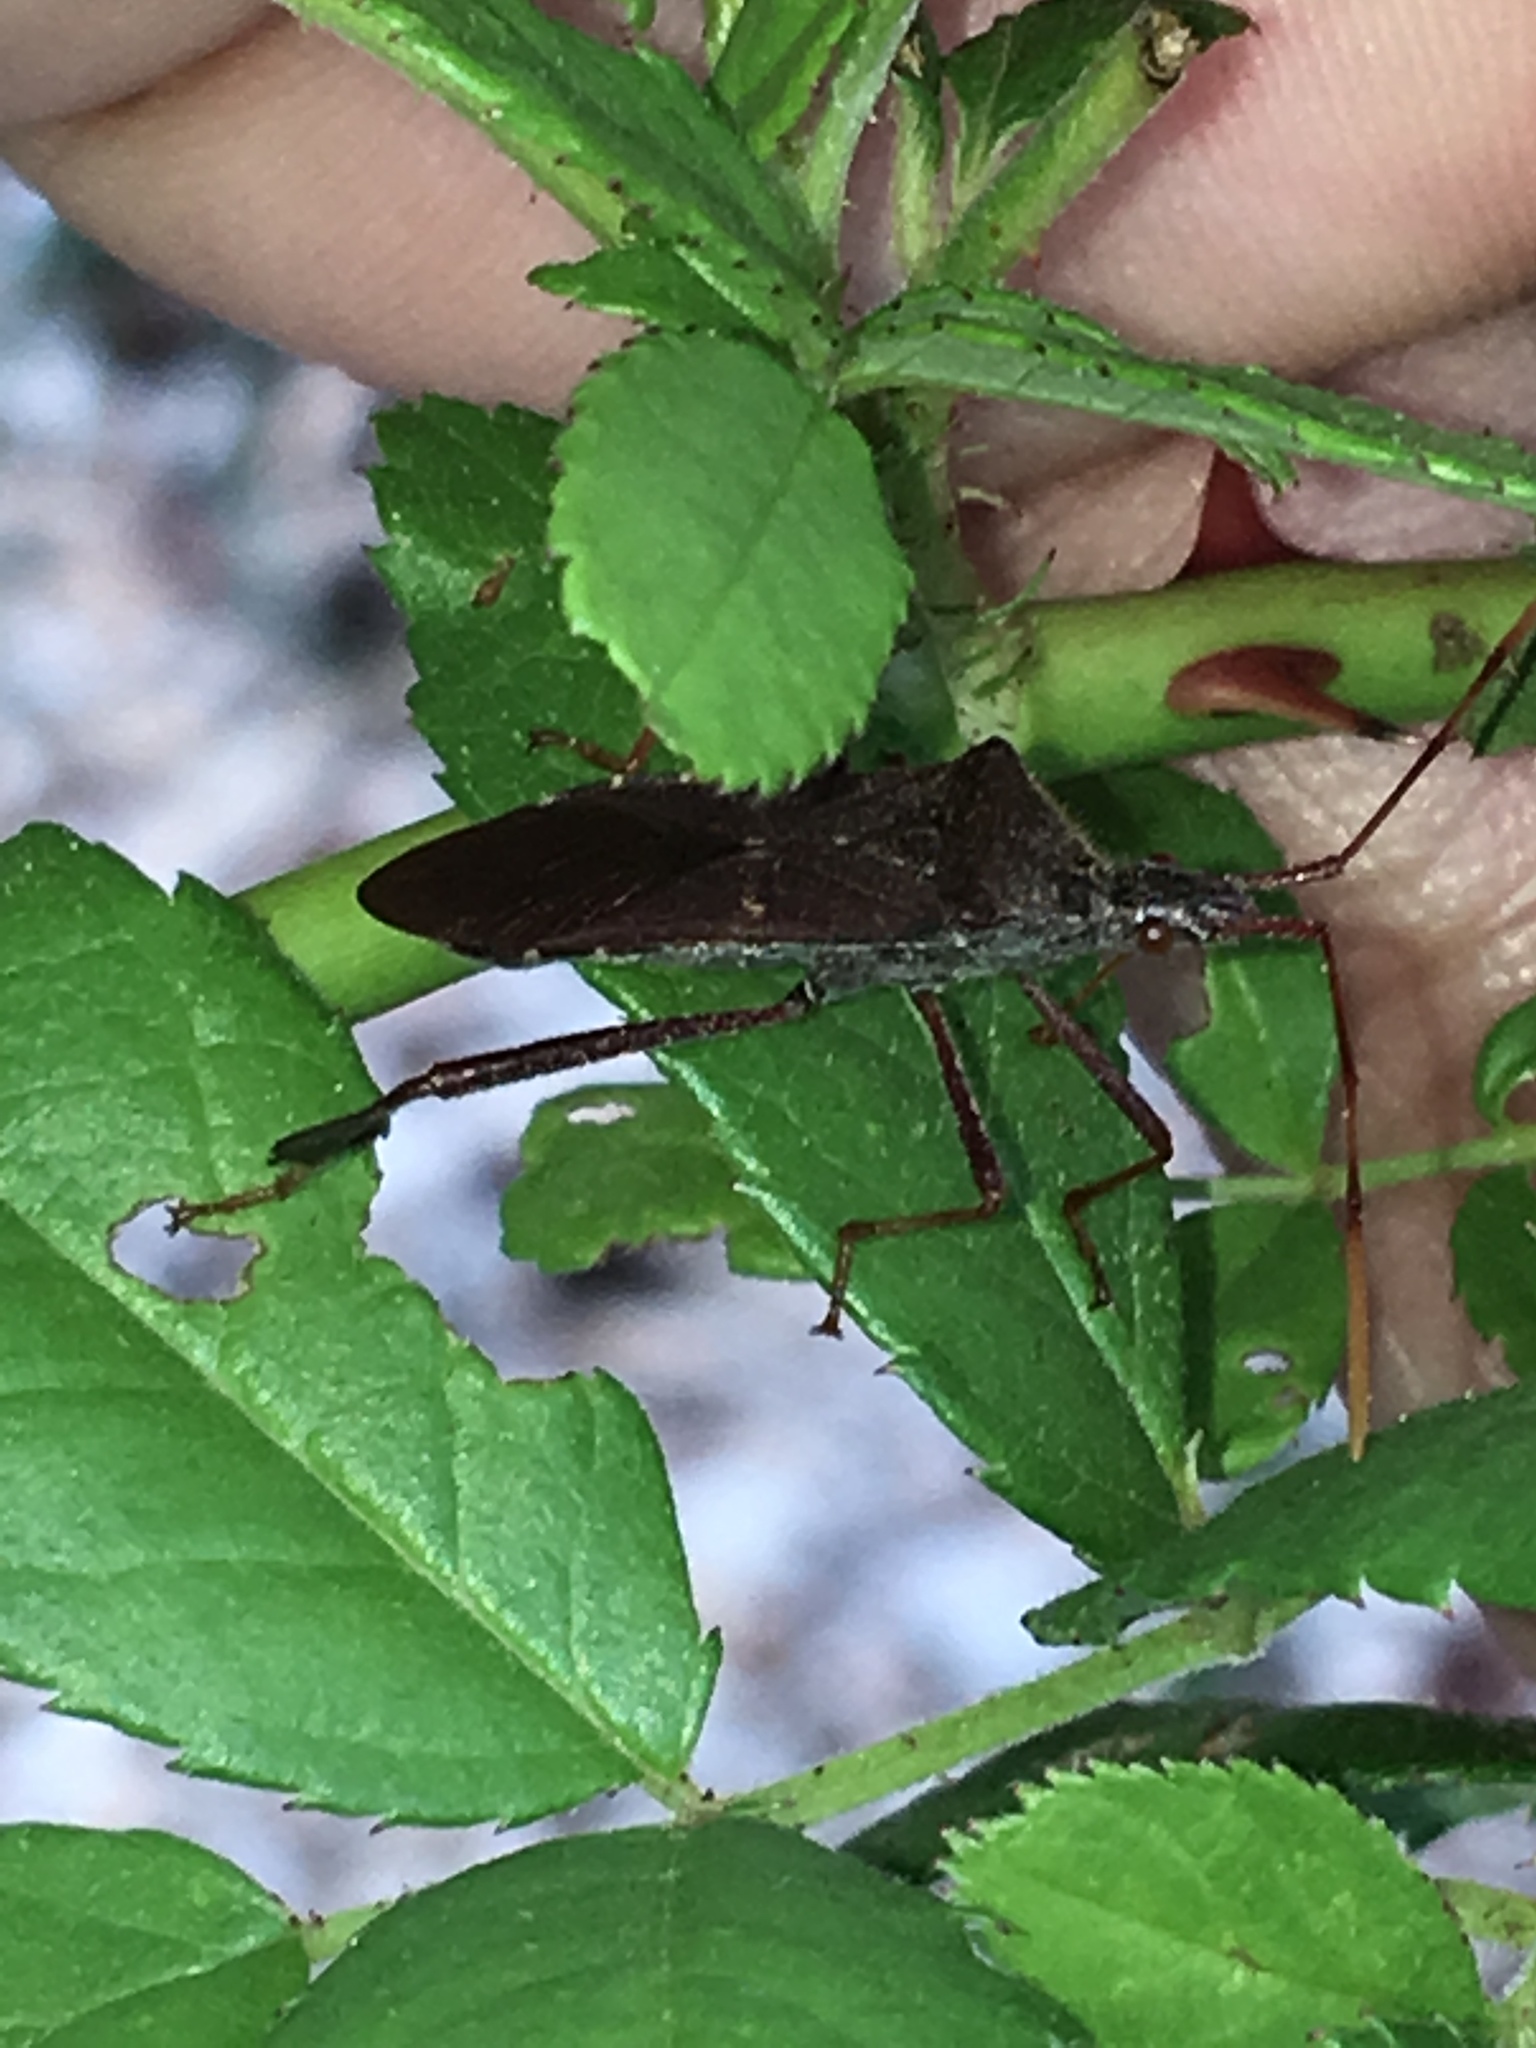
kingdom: Animalia
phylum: Arthropoda
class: Insecta
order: Hemiptera
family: Coreidae
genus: Leptoglossus
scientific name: Leptoglossus oppositus
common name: Northern leaf-footed bug
